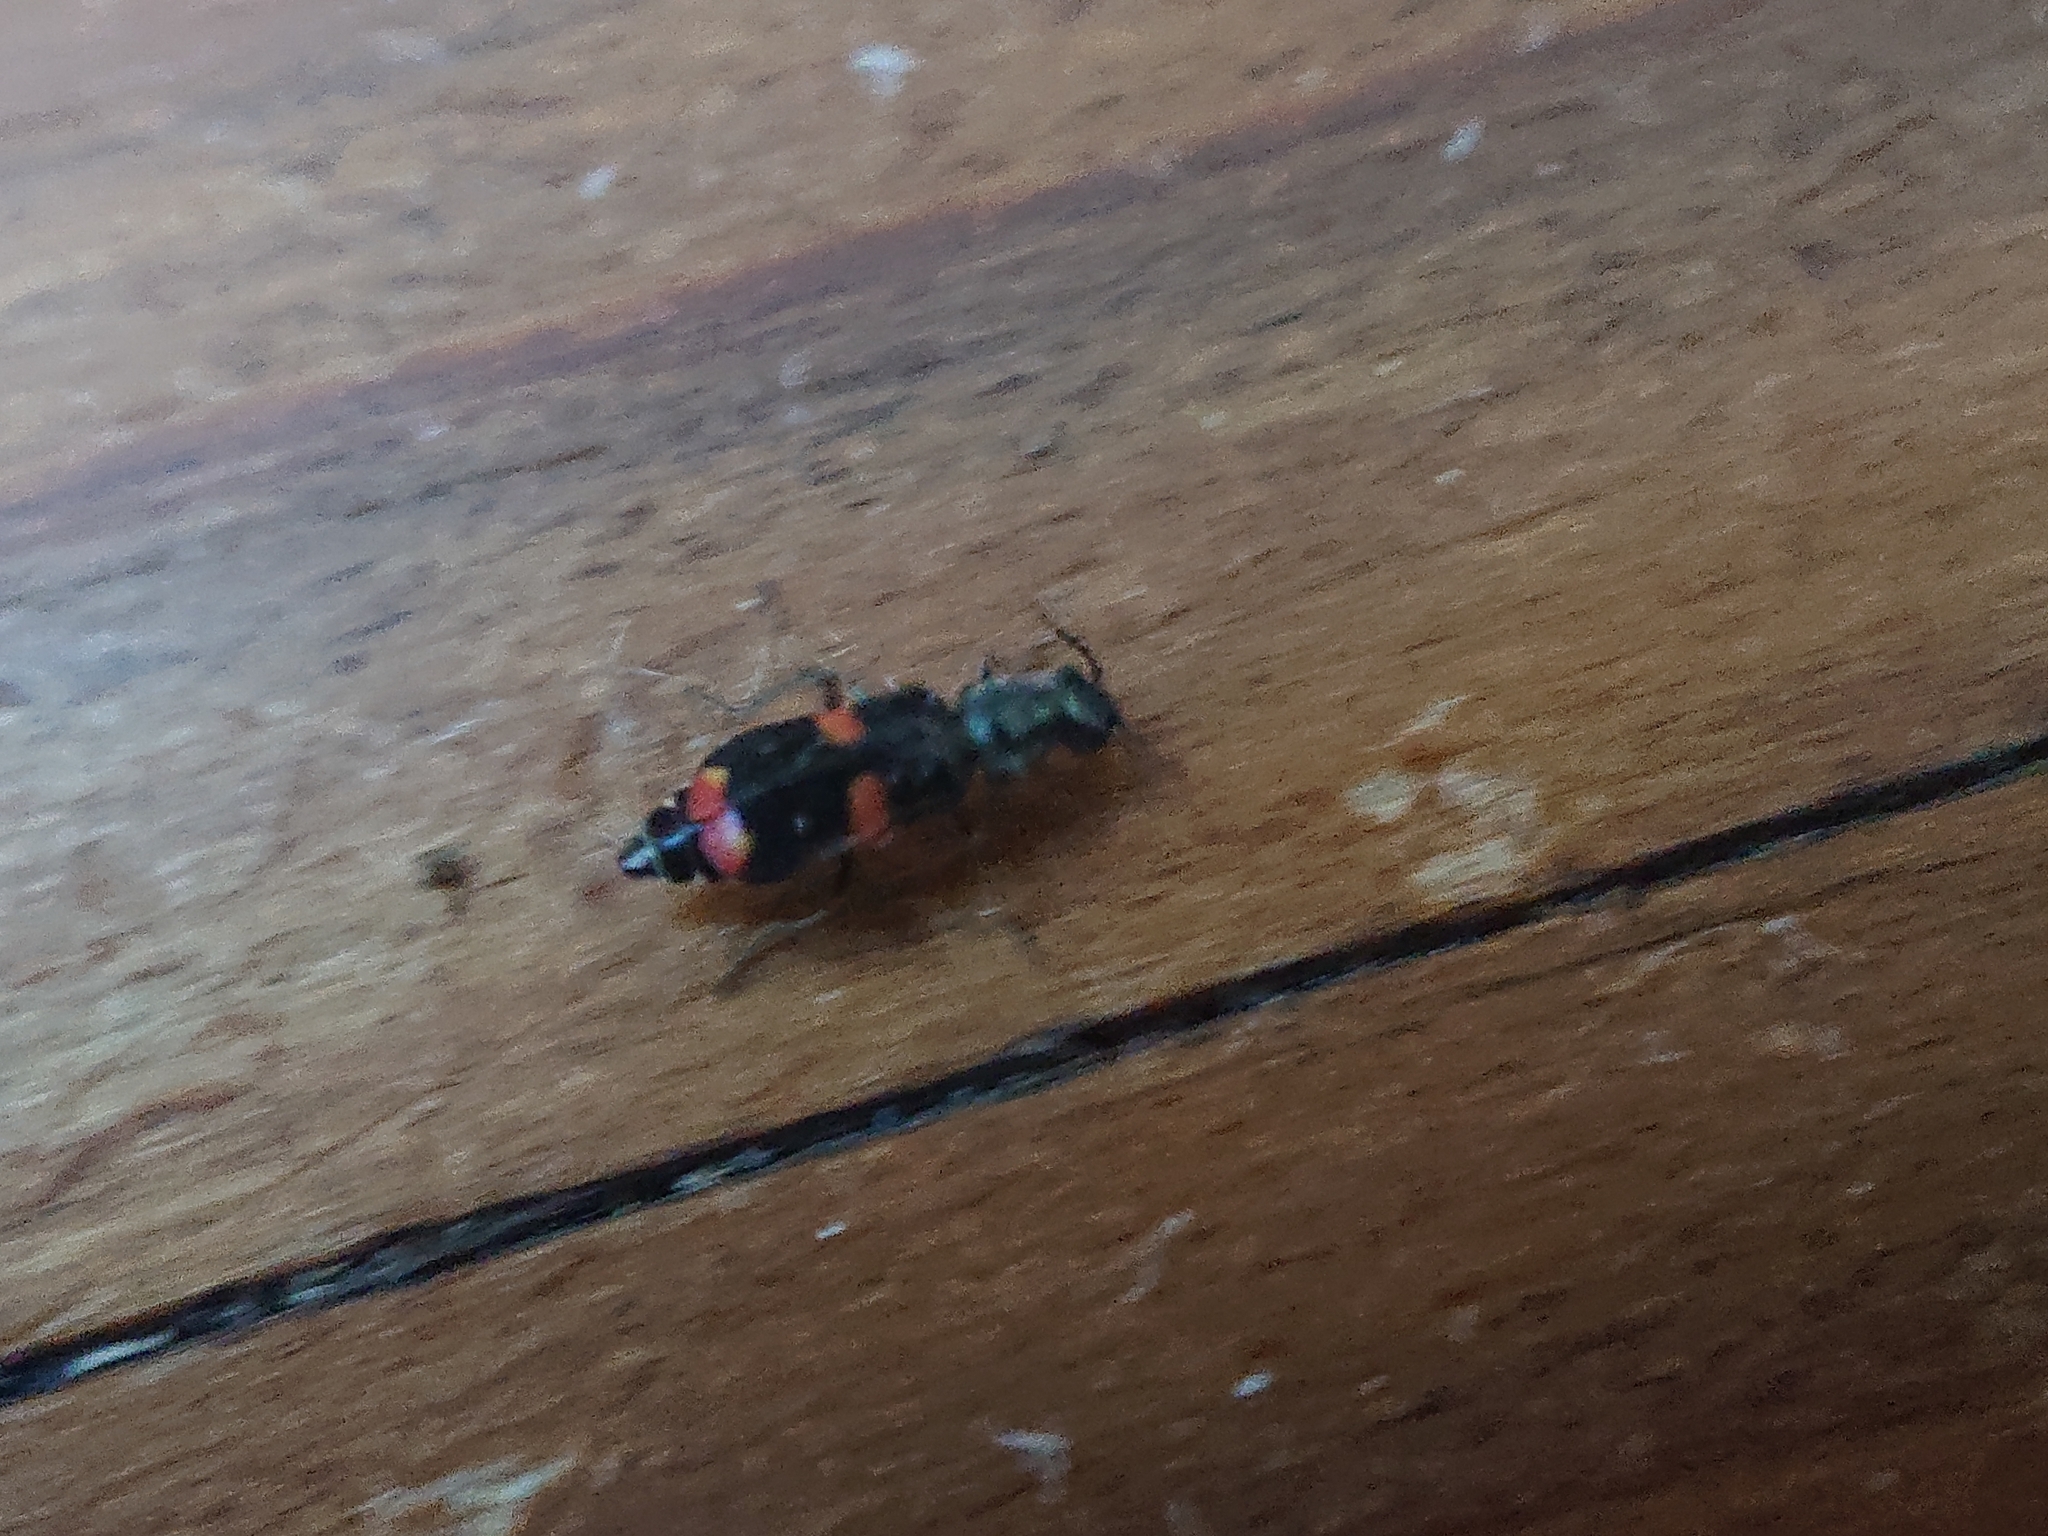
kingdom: Animalia
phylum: Arthropoda
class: Insecta
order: Coleoptera
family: Melyridae
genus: Anthocomus
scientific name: Anthocomus fasciatus
